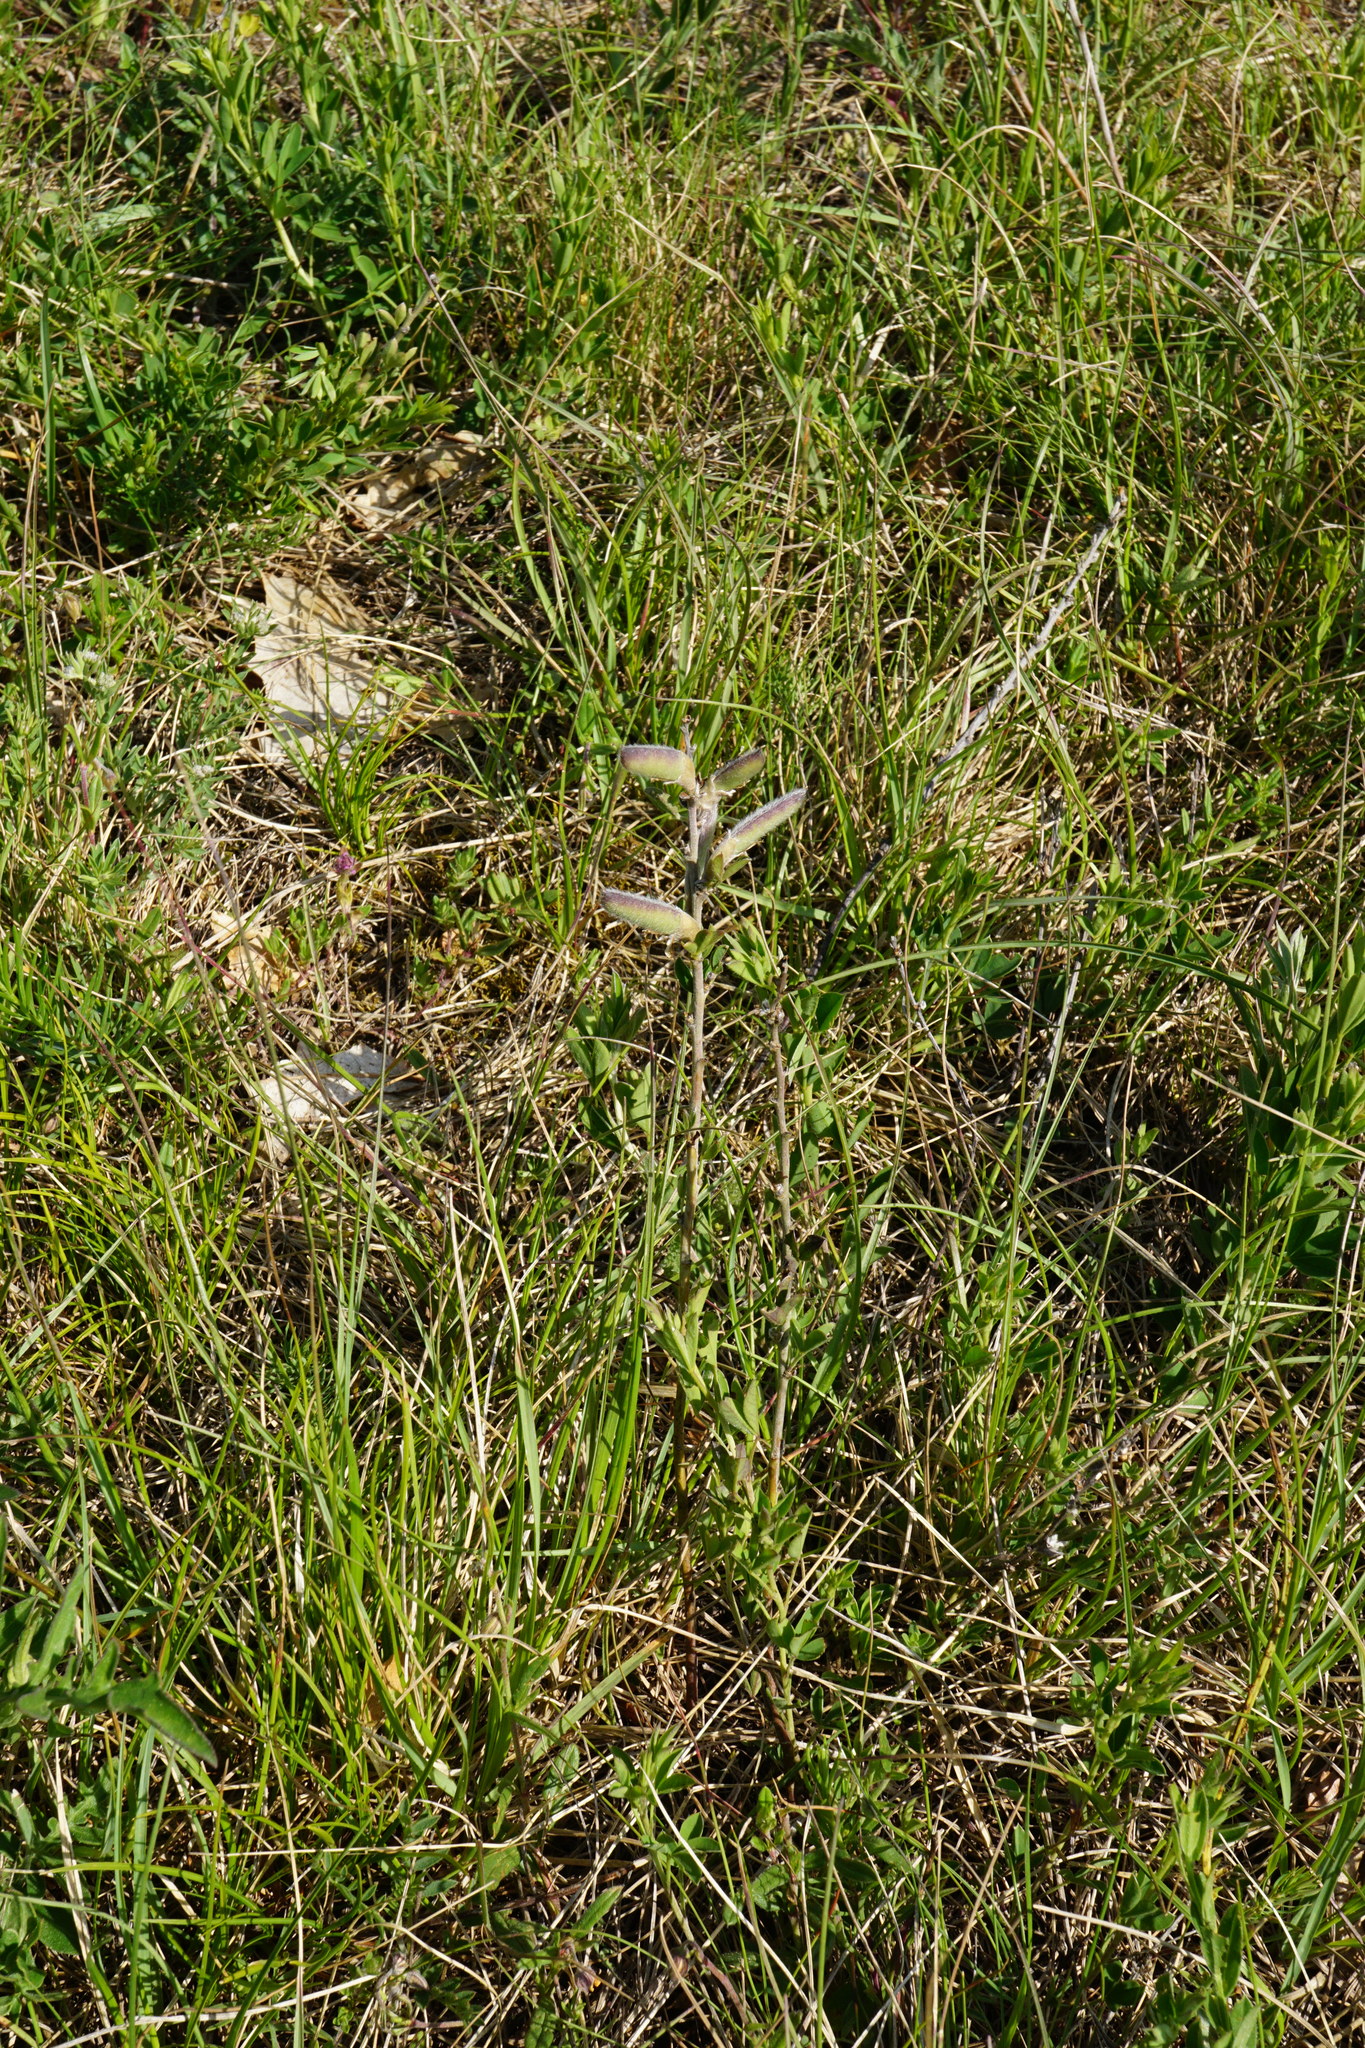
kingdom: Plantae
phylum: Tracheophyta
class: Magnoliopsida
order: Fabales
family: Fabaceae
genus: Chamaecytisus
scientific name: Chamaecytisus ratisbonensis
